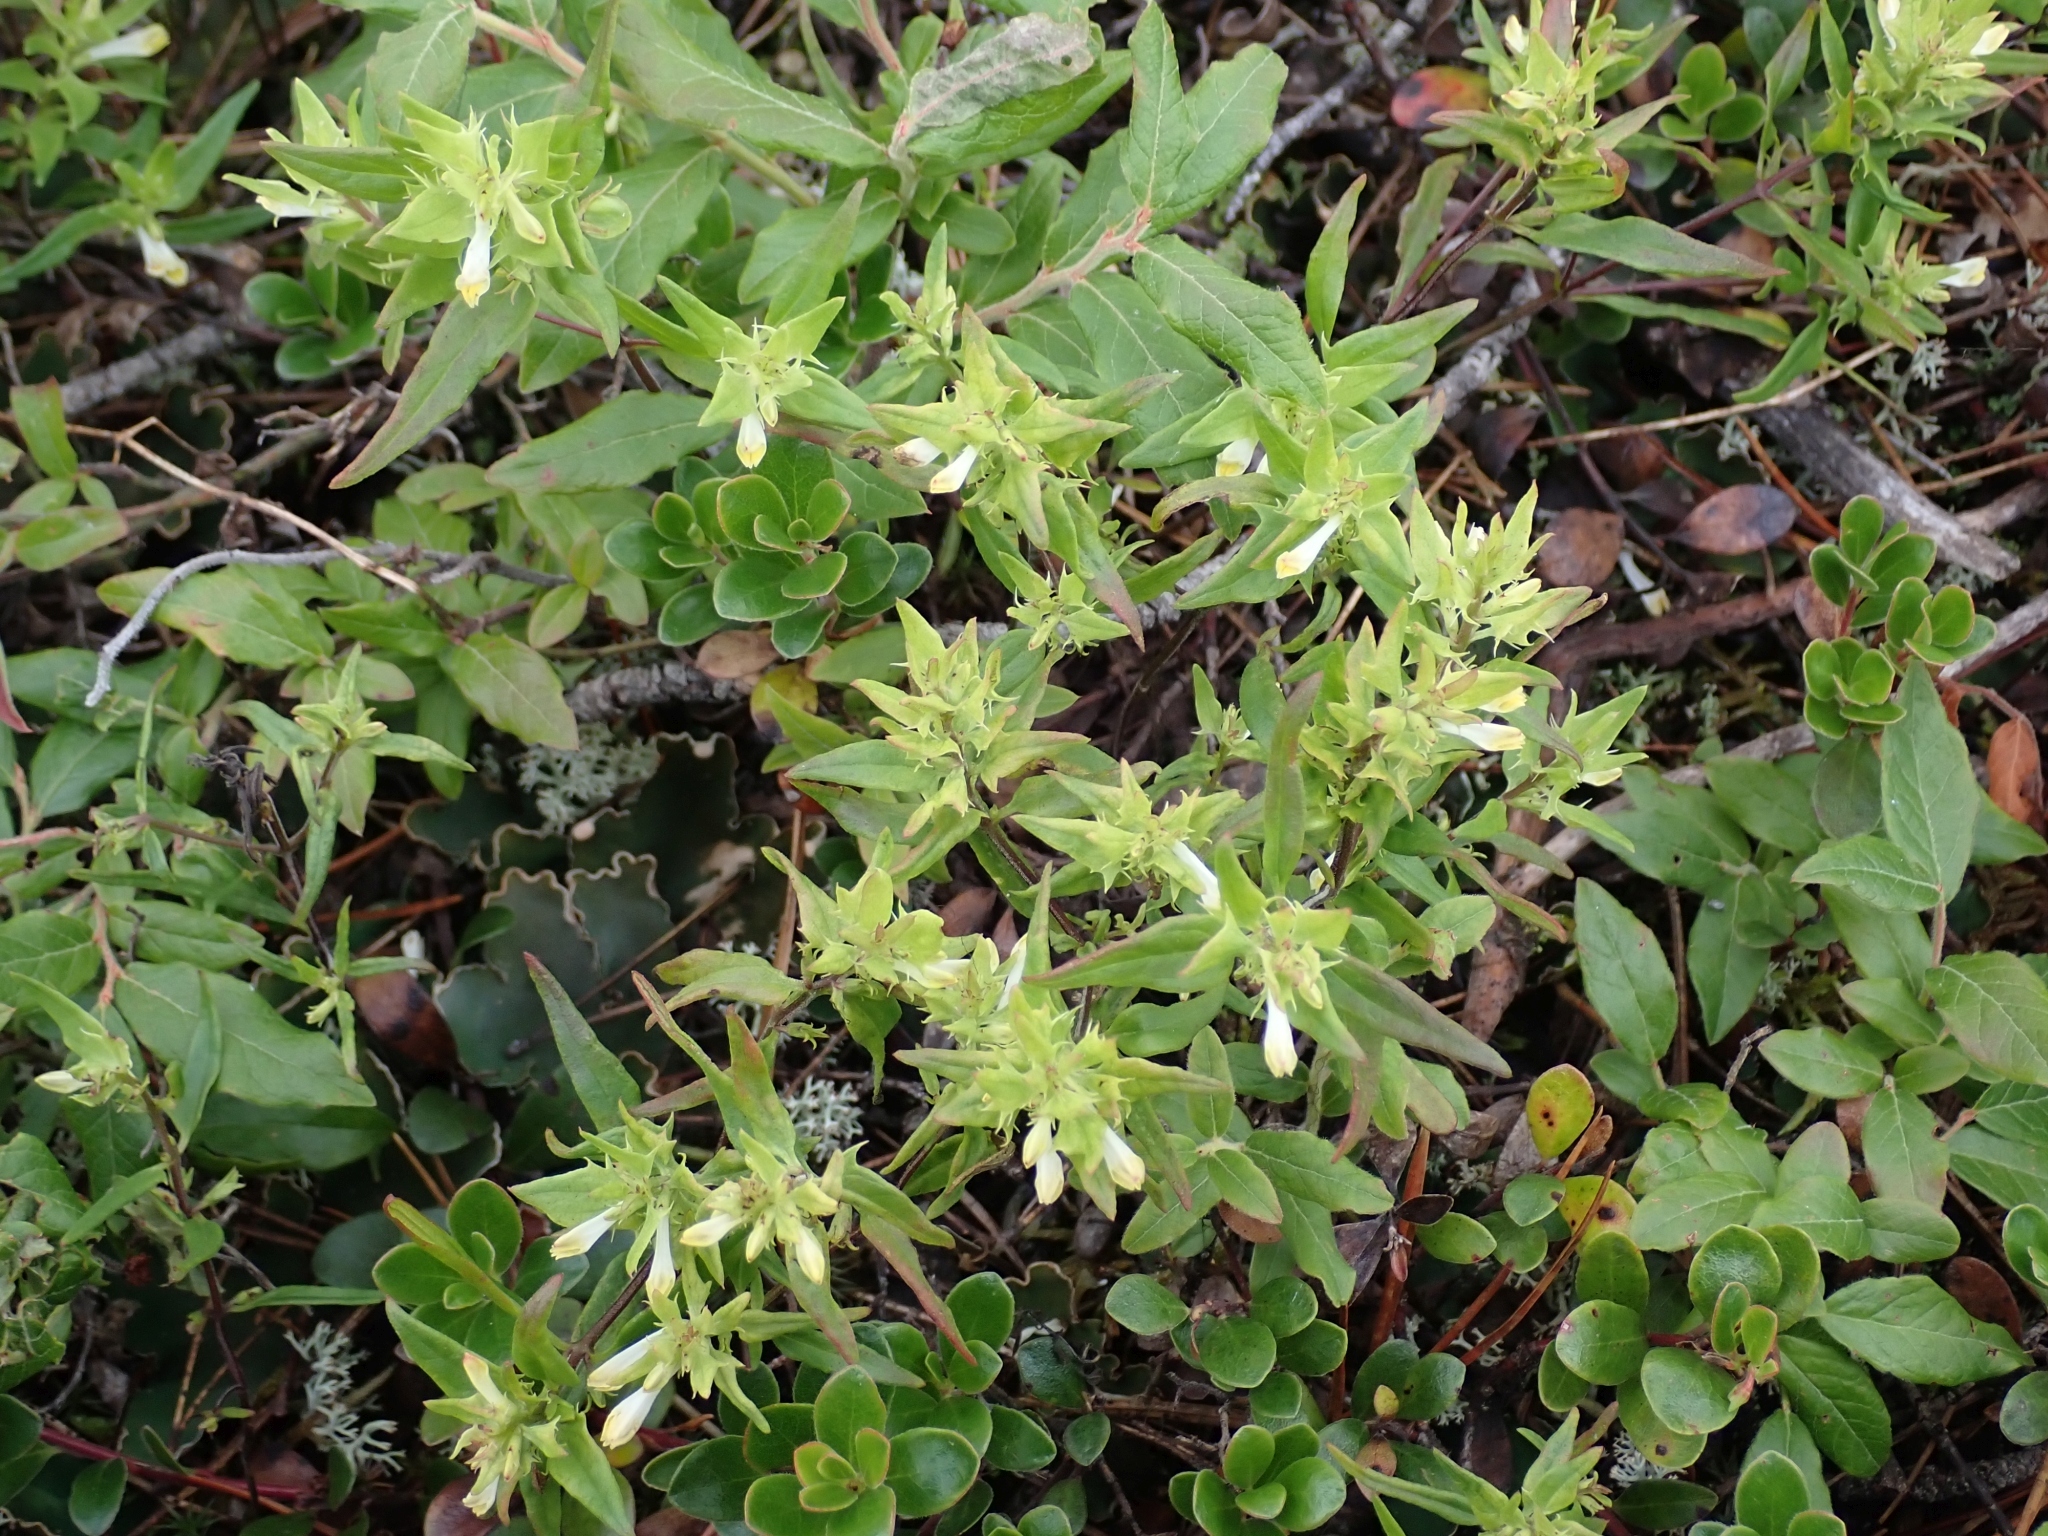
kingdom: Plantae
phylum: Tracheophyta
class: Magnoliopsida
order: Lamiales
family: Orobanchaceae
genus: Melampyrum
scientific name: Melampyrum lineare
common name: American cow-wheat
